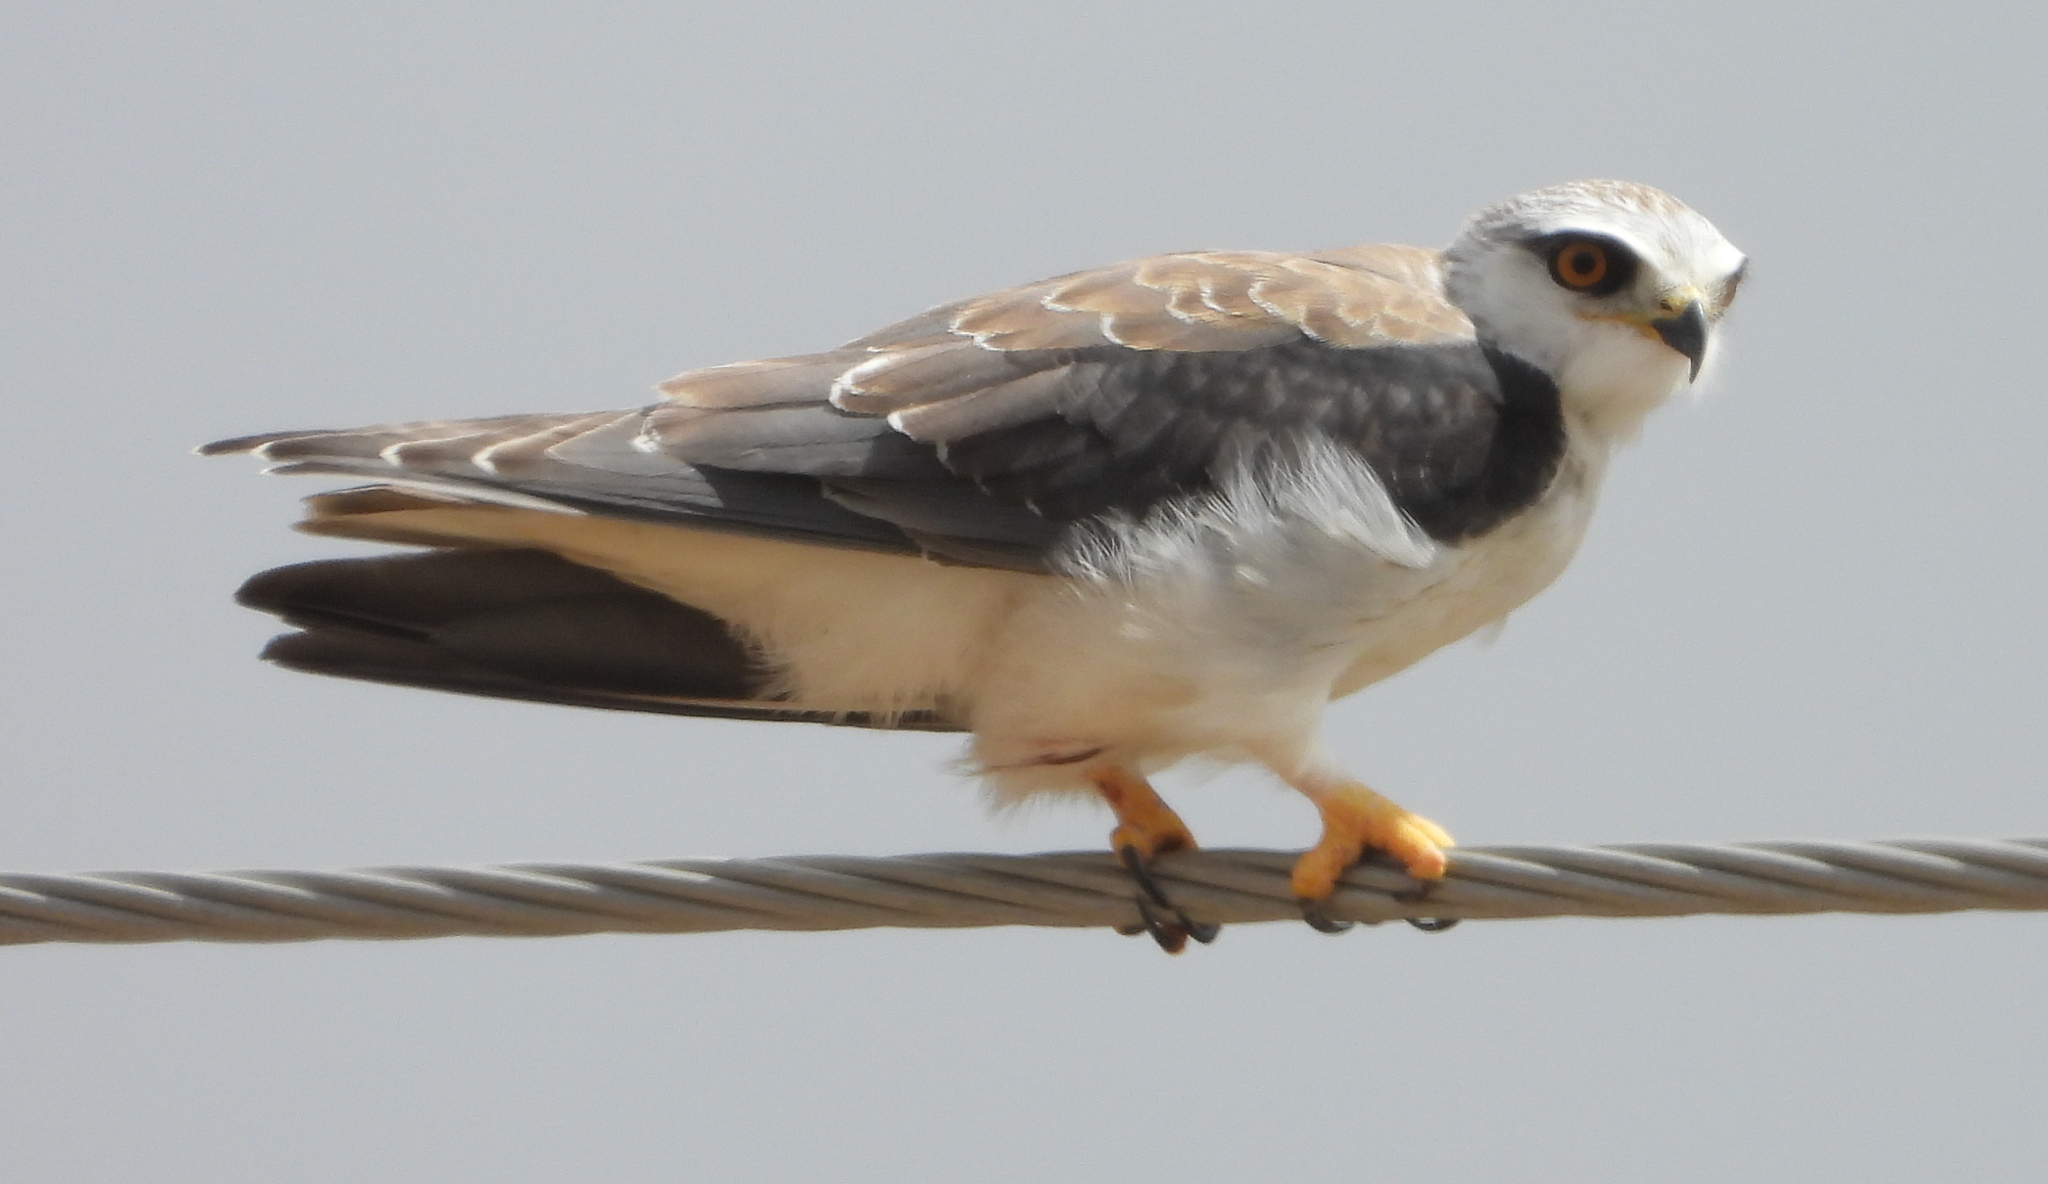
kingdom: Animalia
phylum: Chordata
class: Aves
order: Accipitriformes
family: Accipitridae
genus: Elanus
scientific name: Elanus caeruleus
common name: Black-winged kite
